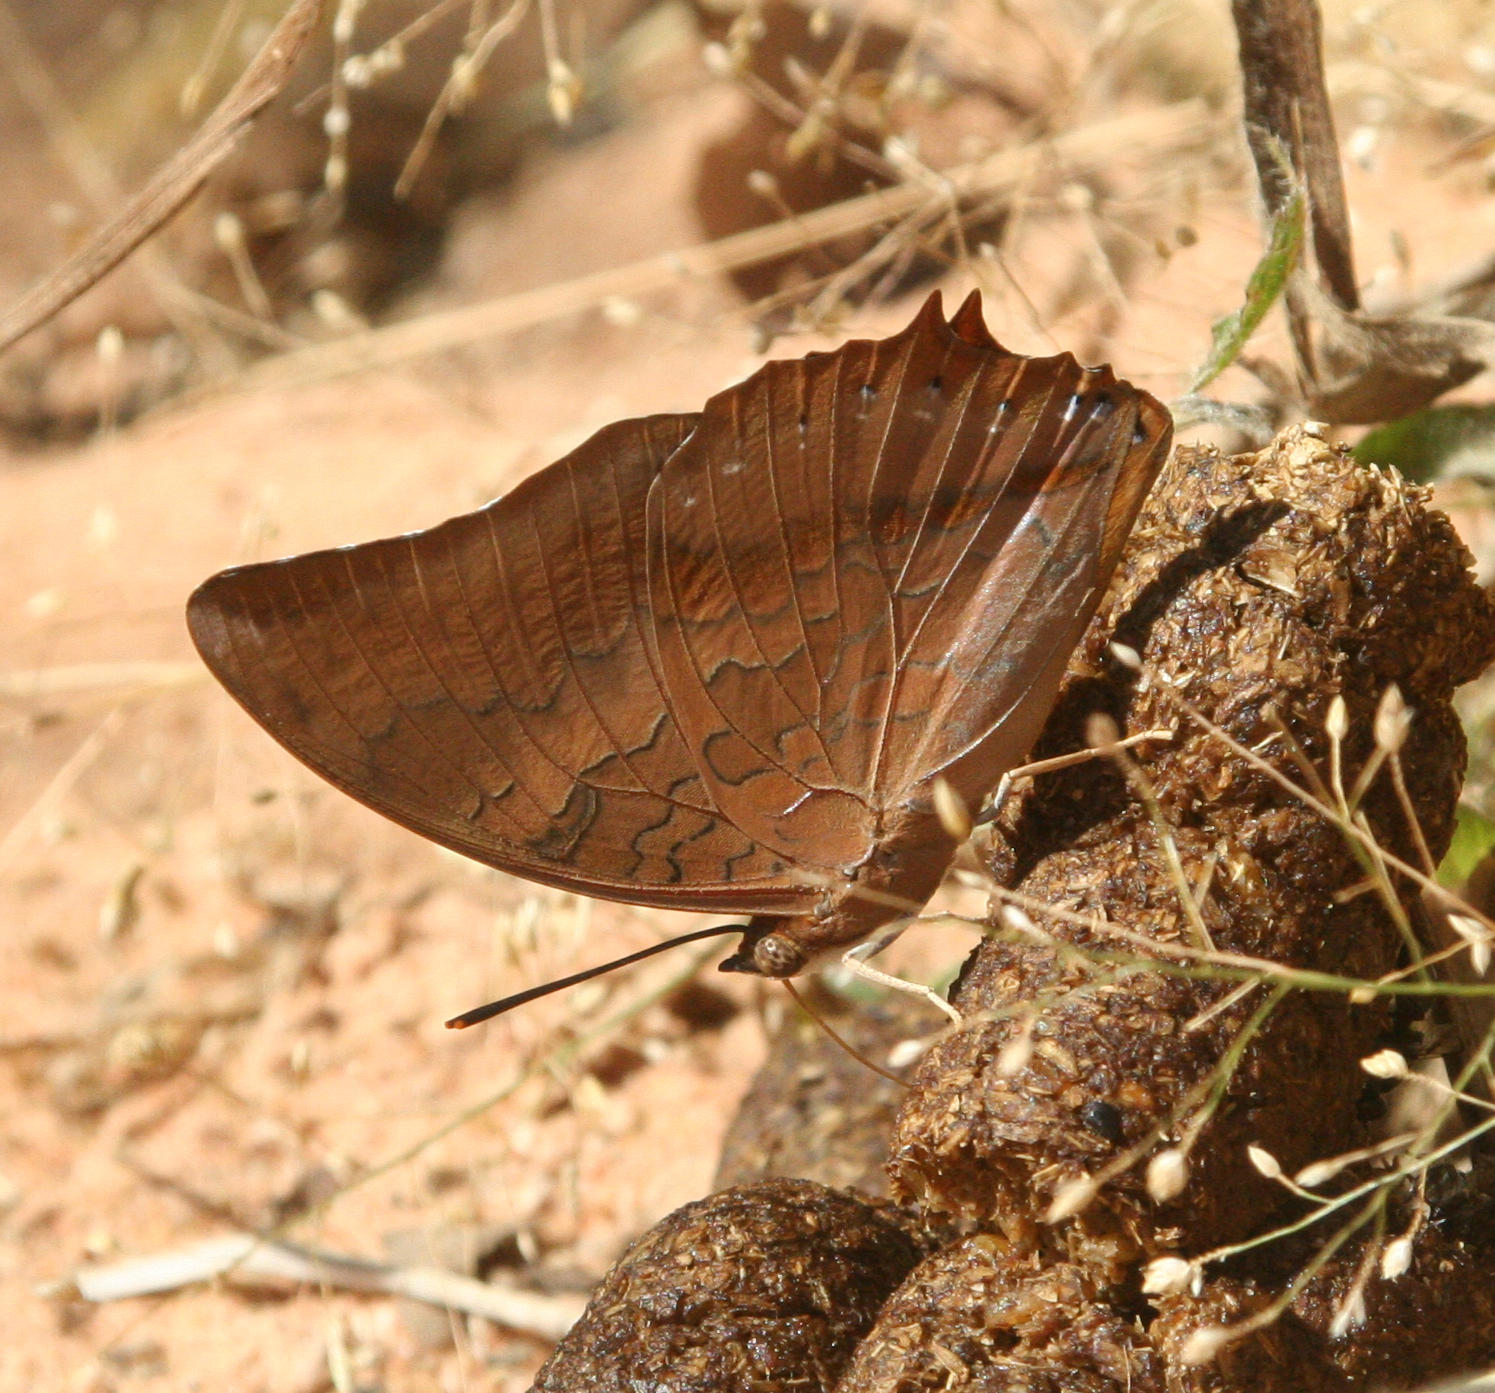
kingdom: Animalia
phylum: Arthropoda
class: Insecta
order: Lepidoptera
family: Nymphalidae
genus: Charaxes
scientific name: Charaxes bernardus
